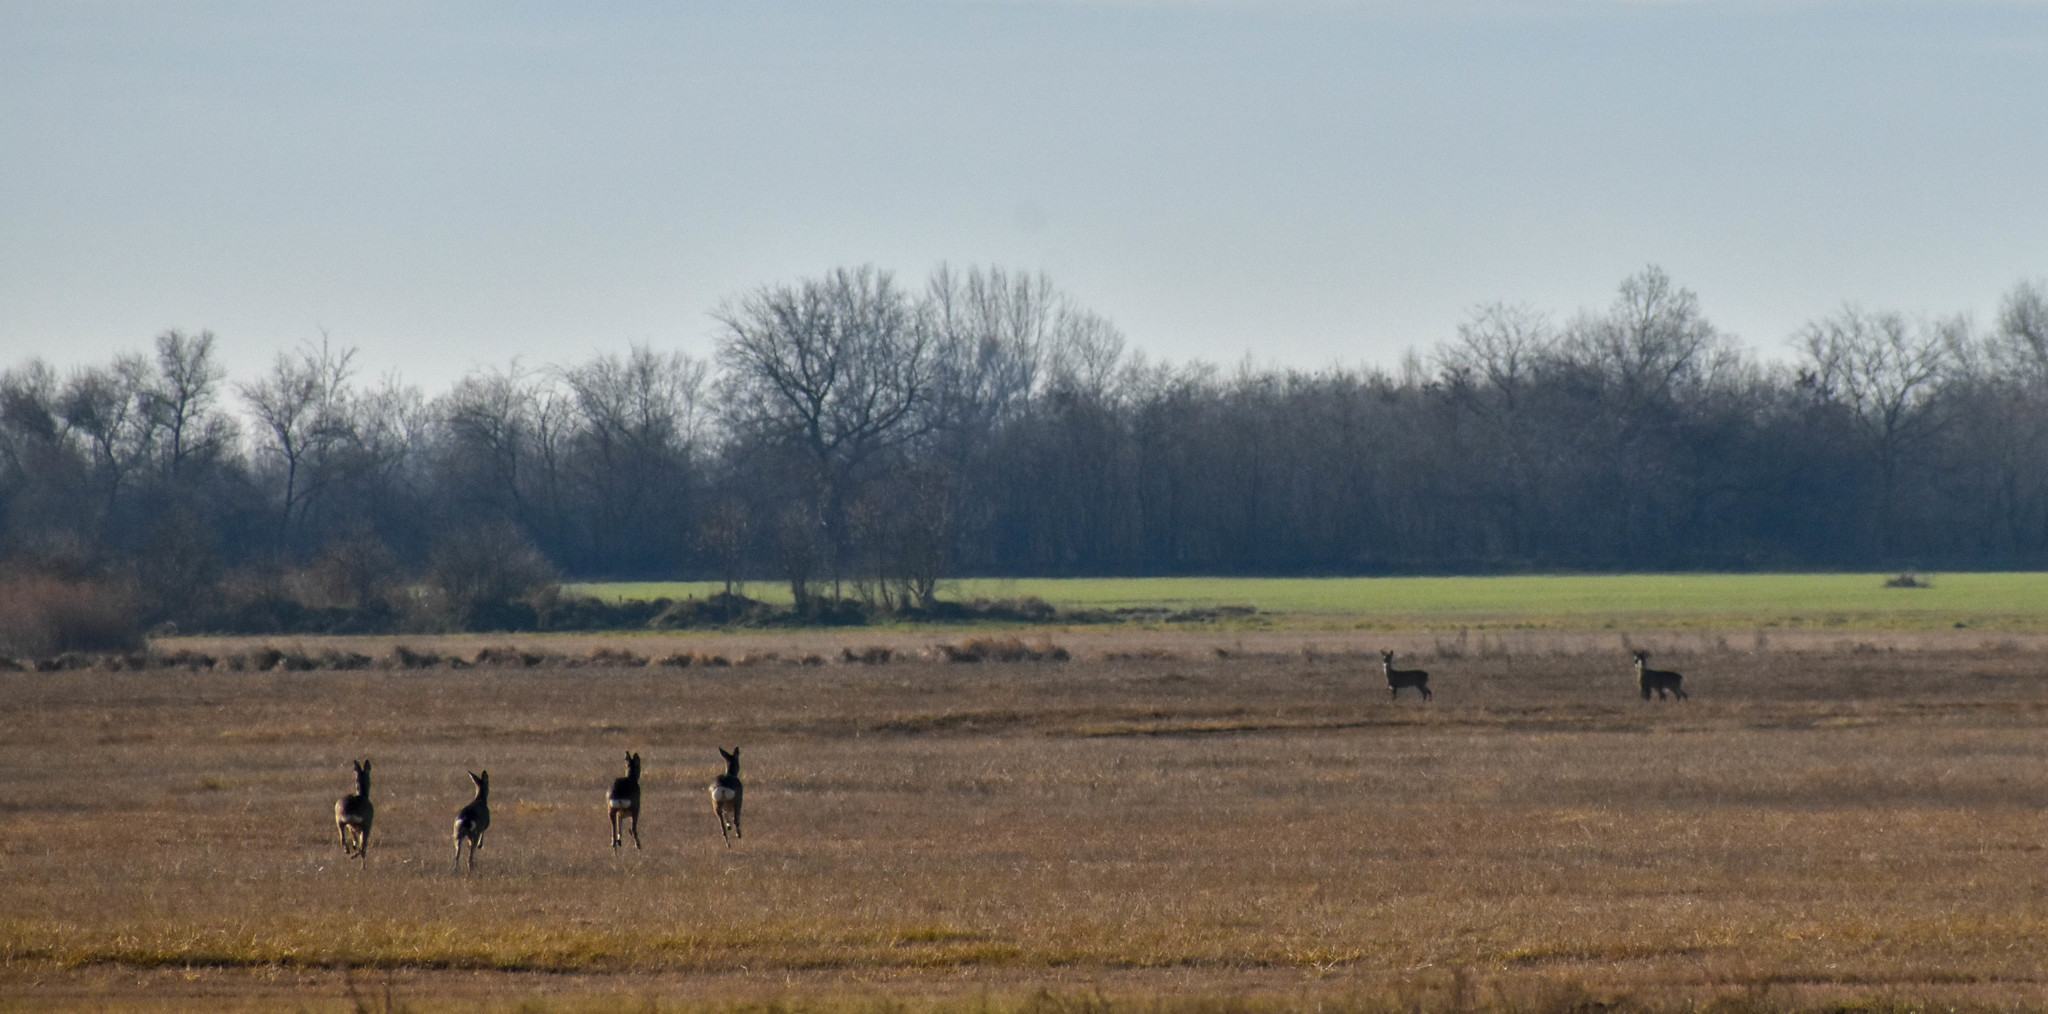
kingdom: Animalia
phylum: Chordata
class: Mammalia
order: Artiodactyla
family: Cervidae
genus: Capreolus
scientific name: Capreolus capreolus
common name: Western roe deer
